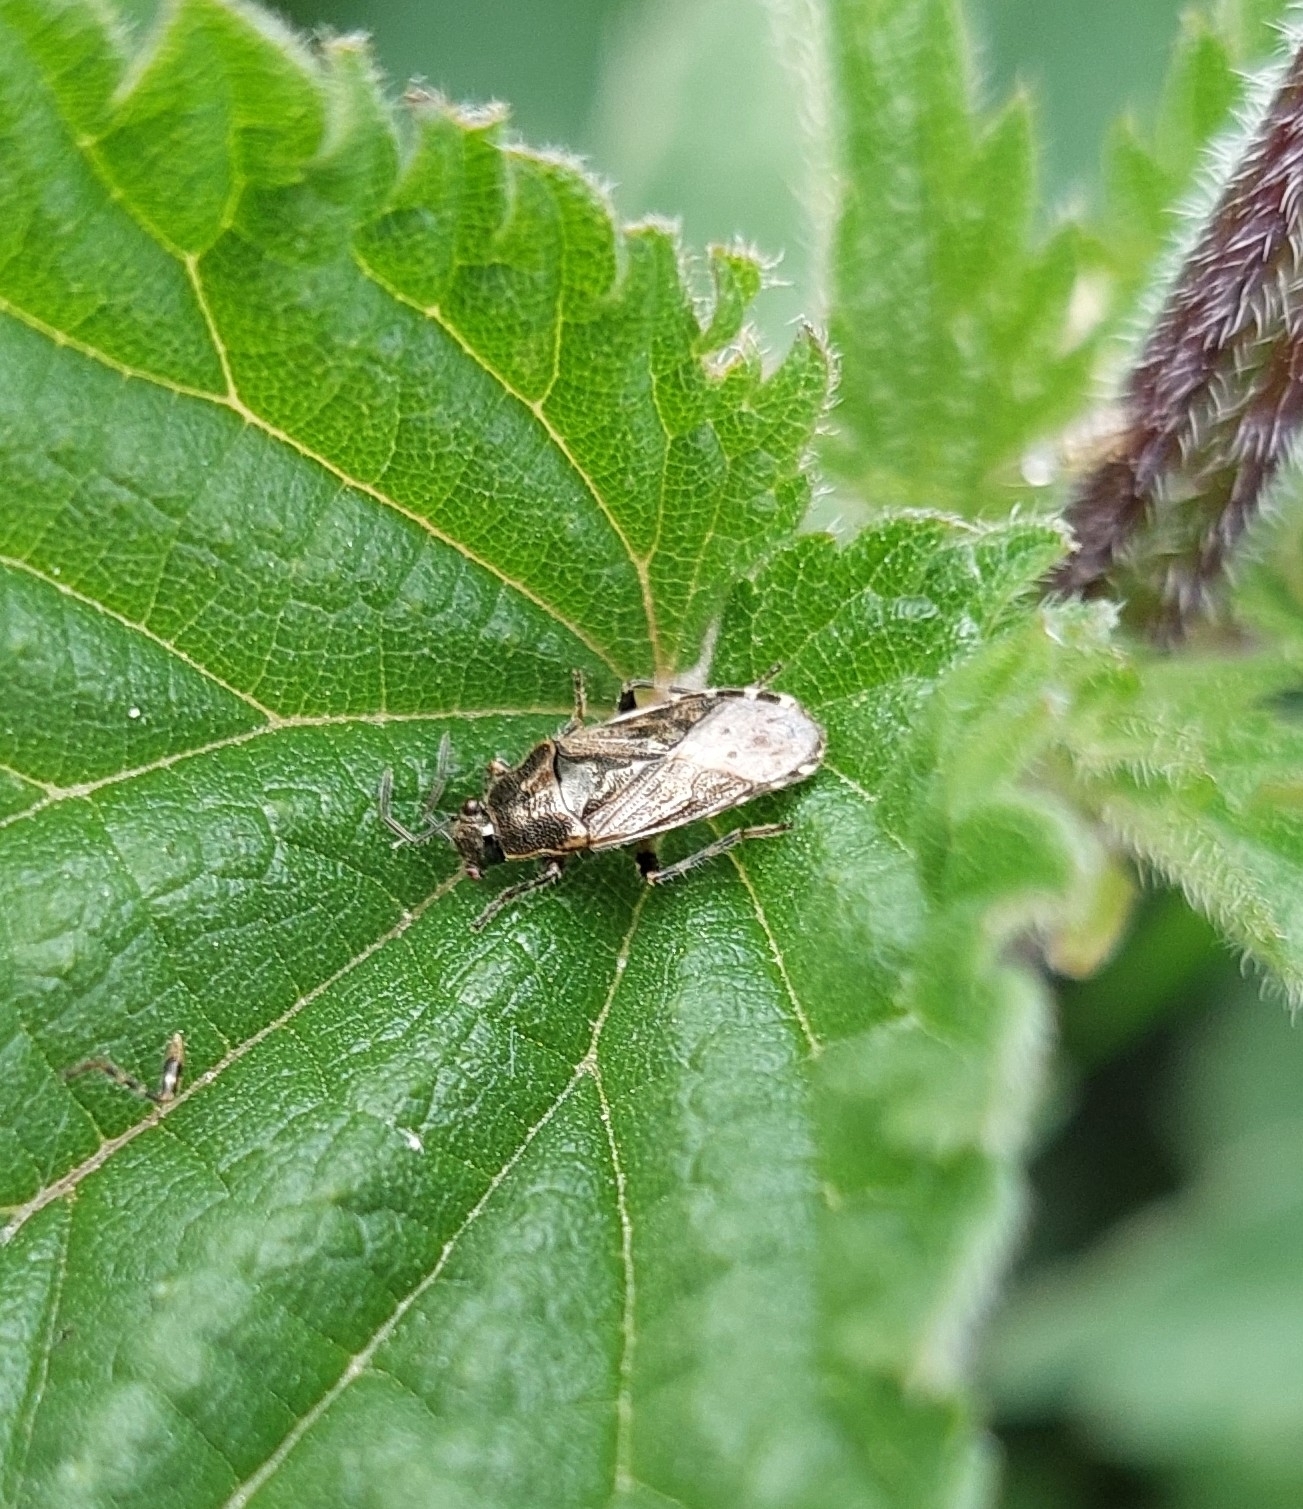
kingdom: Animalia
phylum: Arthropoda
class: Insecta
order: Hemiptera
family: Heterogastridae
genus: Heterogaster
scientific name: Heterogaster urticae
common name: Seed bug
